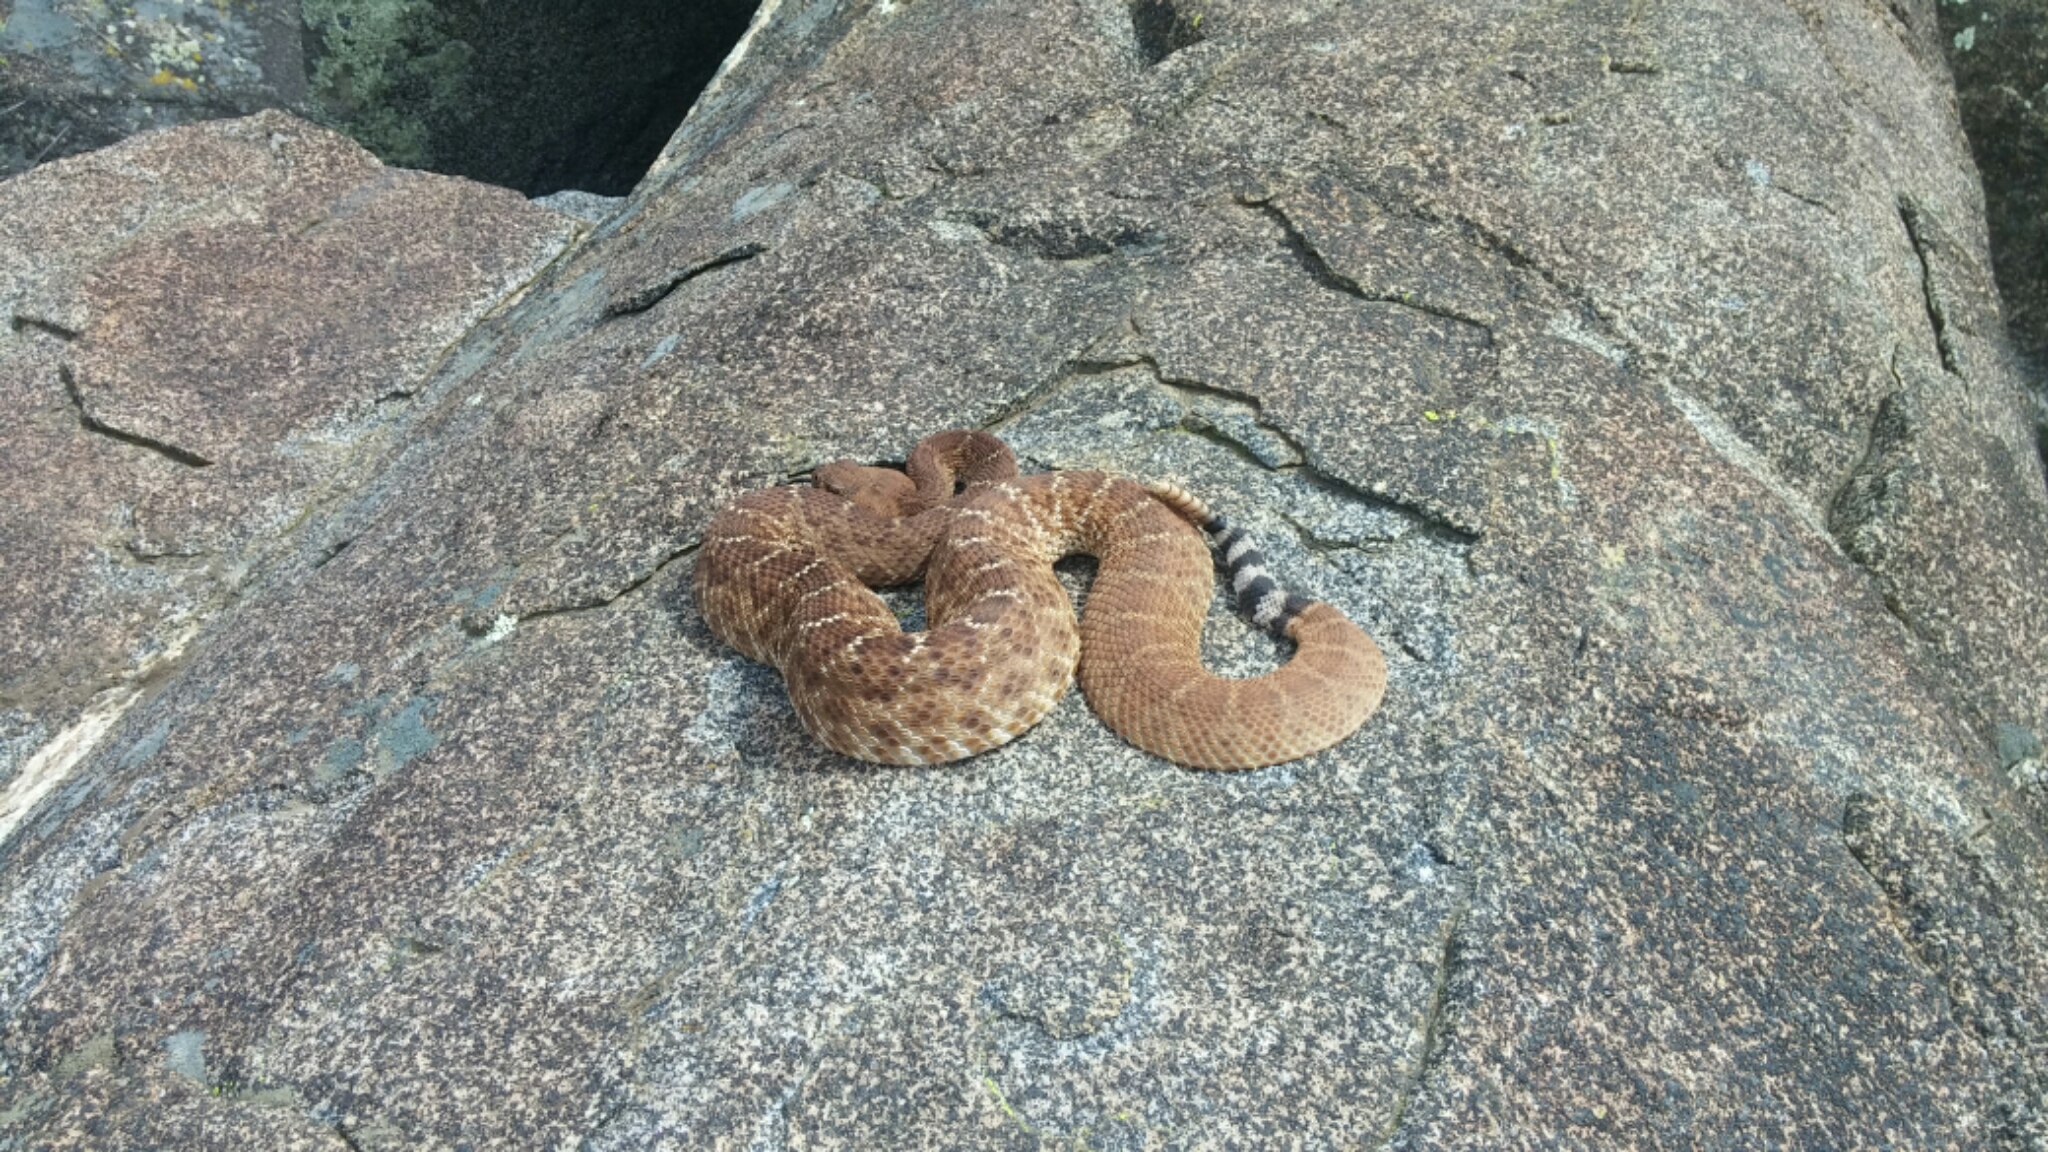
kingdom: Animalia
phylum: Chordata
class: Squamata
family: Viperidae
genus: Crotalus
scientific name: Crotalus ruber
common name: Red diamond rattlesnake
